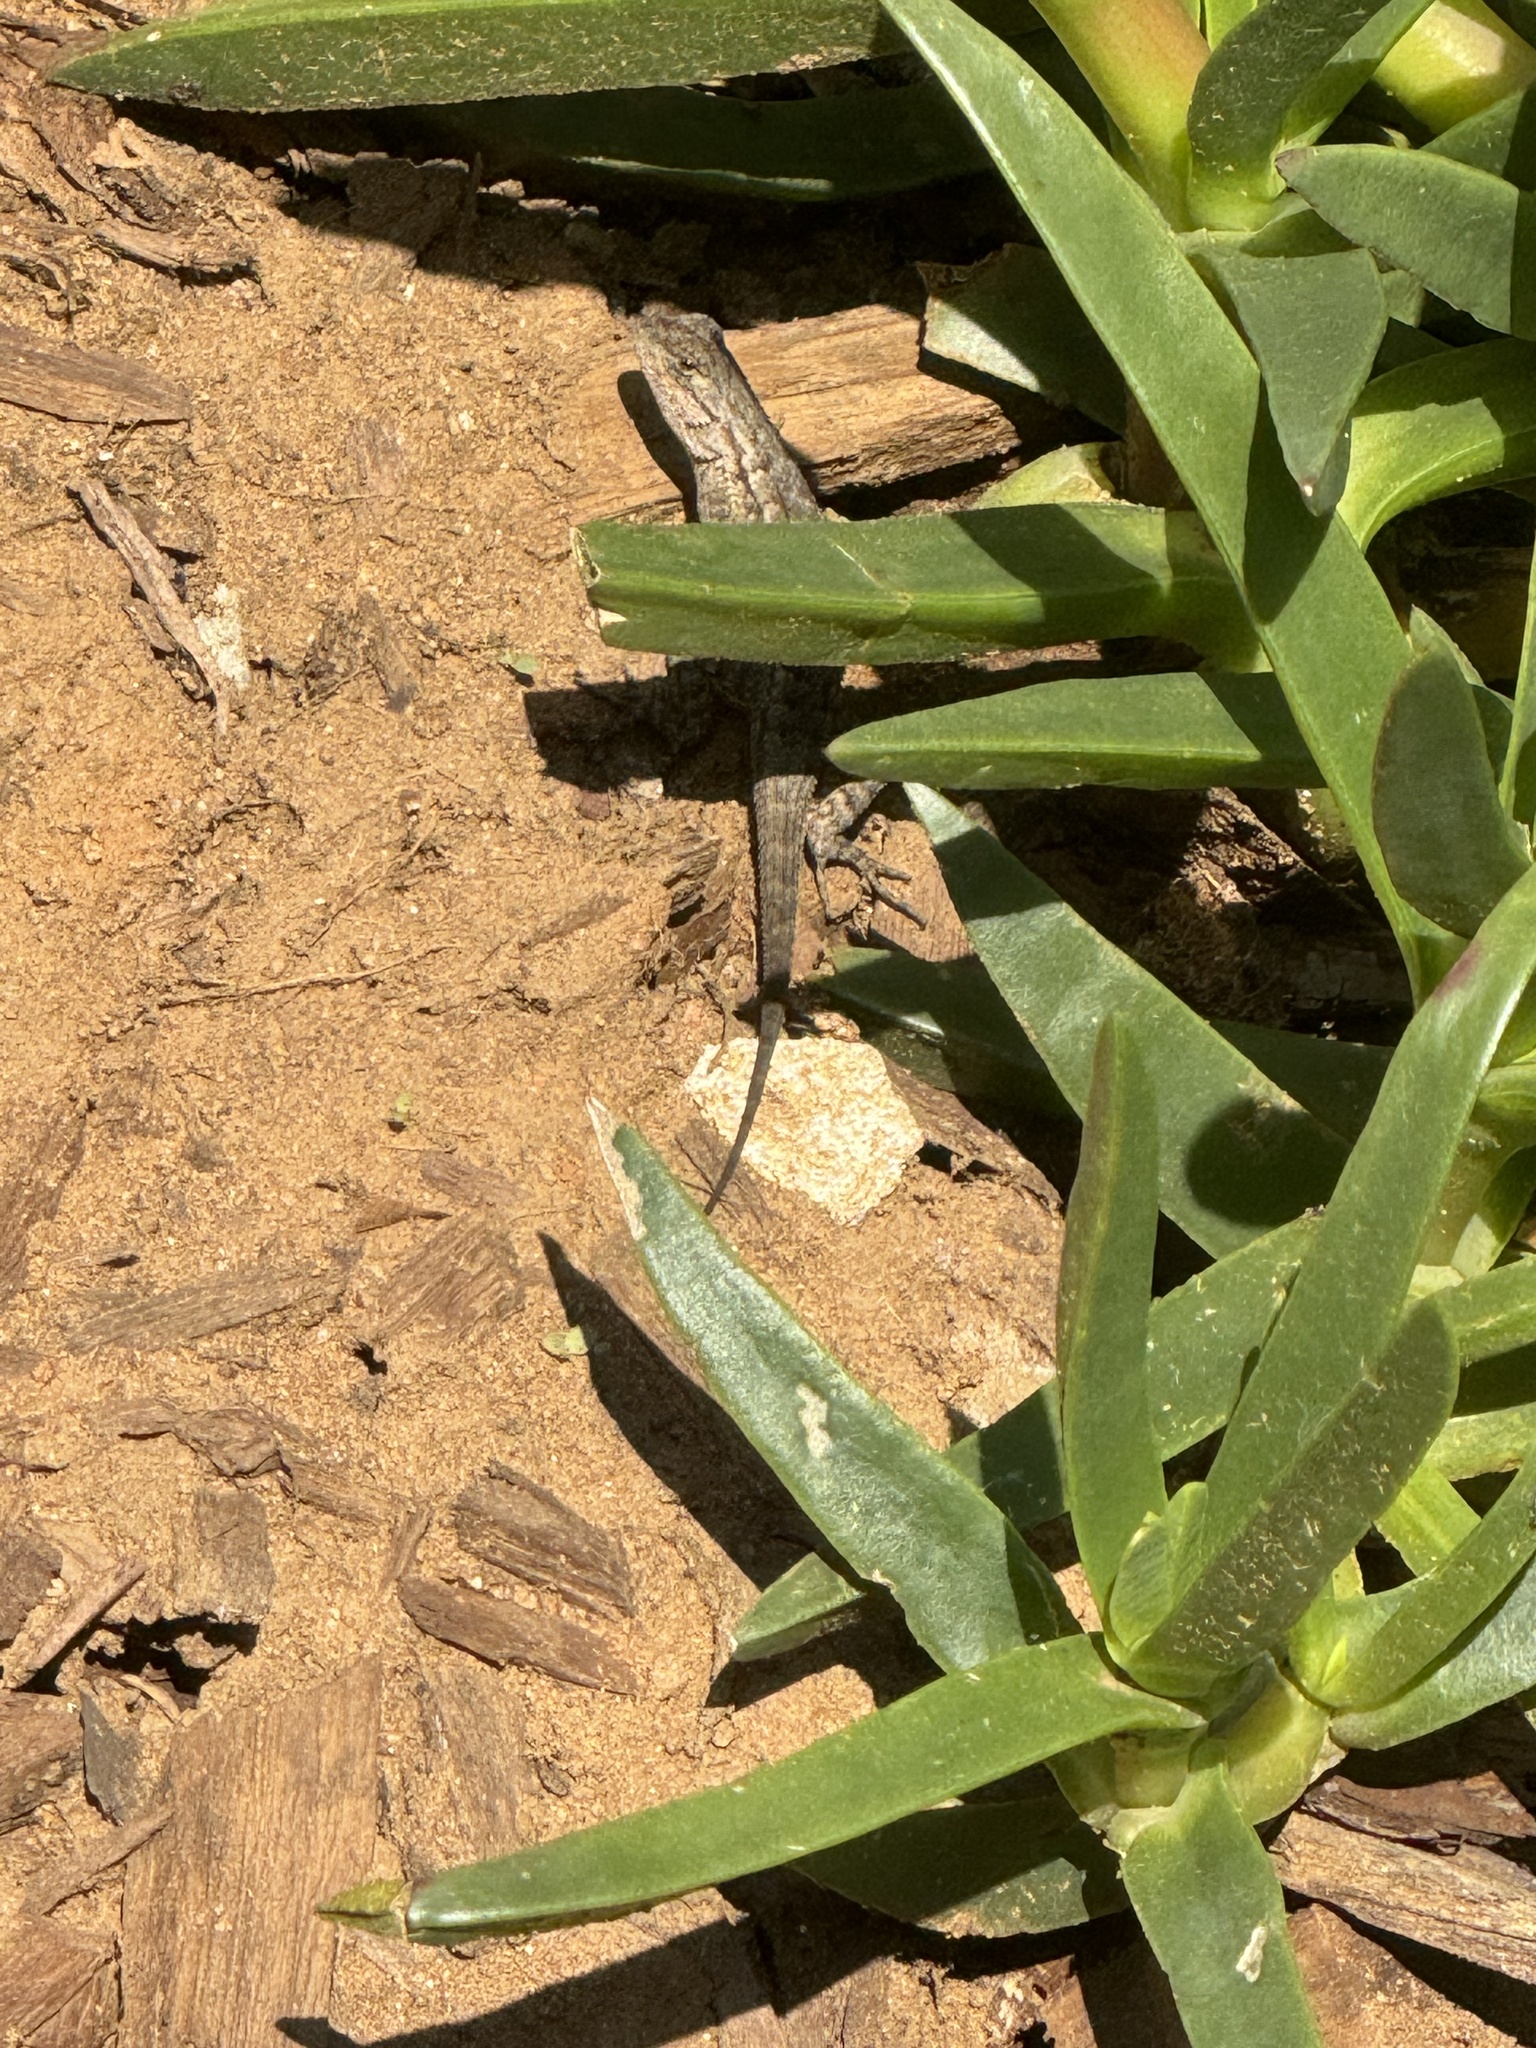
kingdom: Animalia
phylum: Chordata
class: Squamata
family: Phrynosomatidae
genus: Sceloporus
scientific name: Sceloporus occidentalis
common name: Western fence lizard
